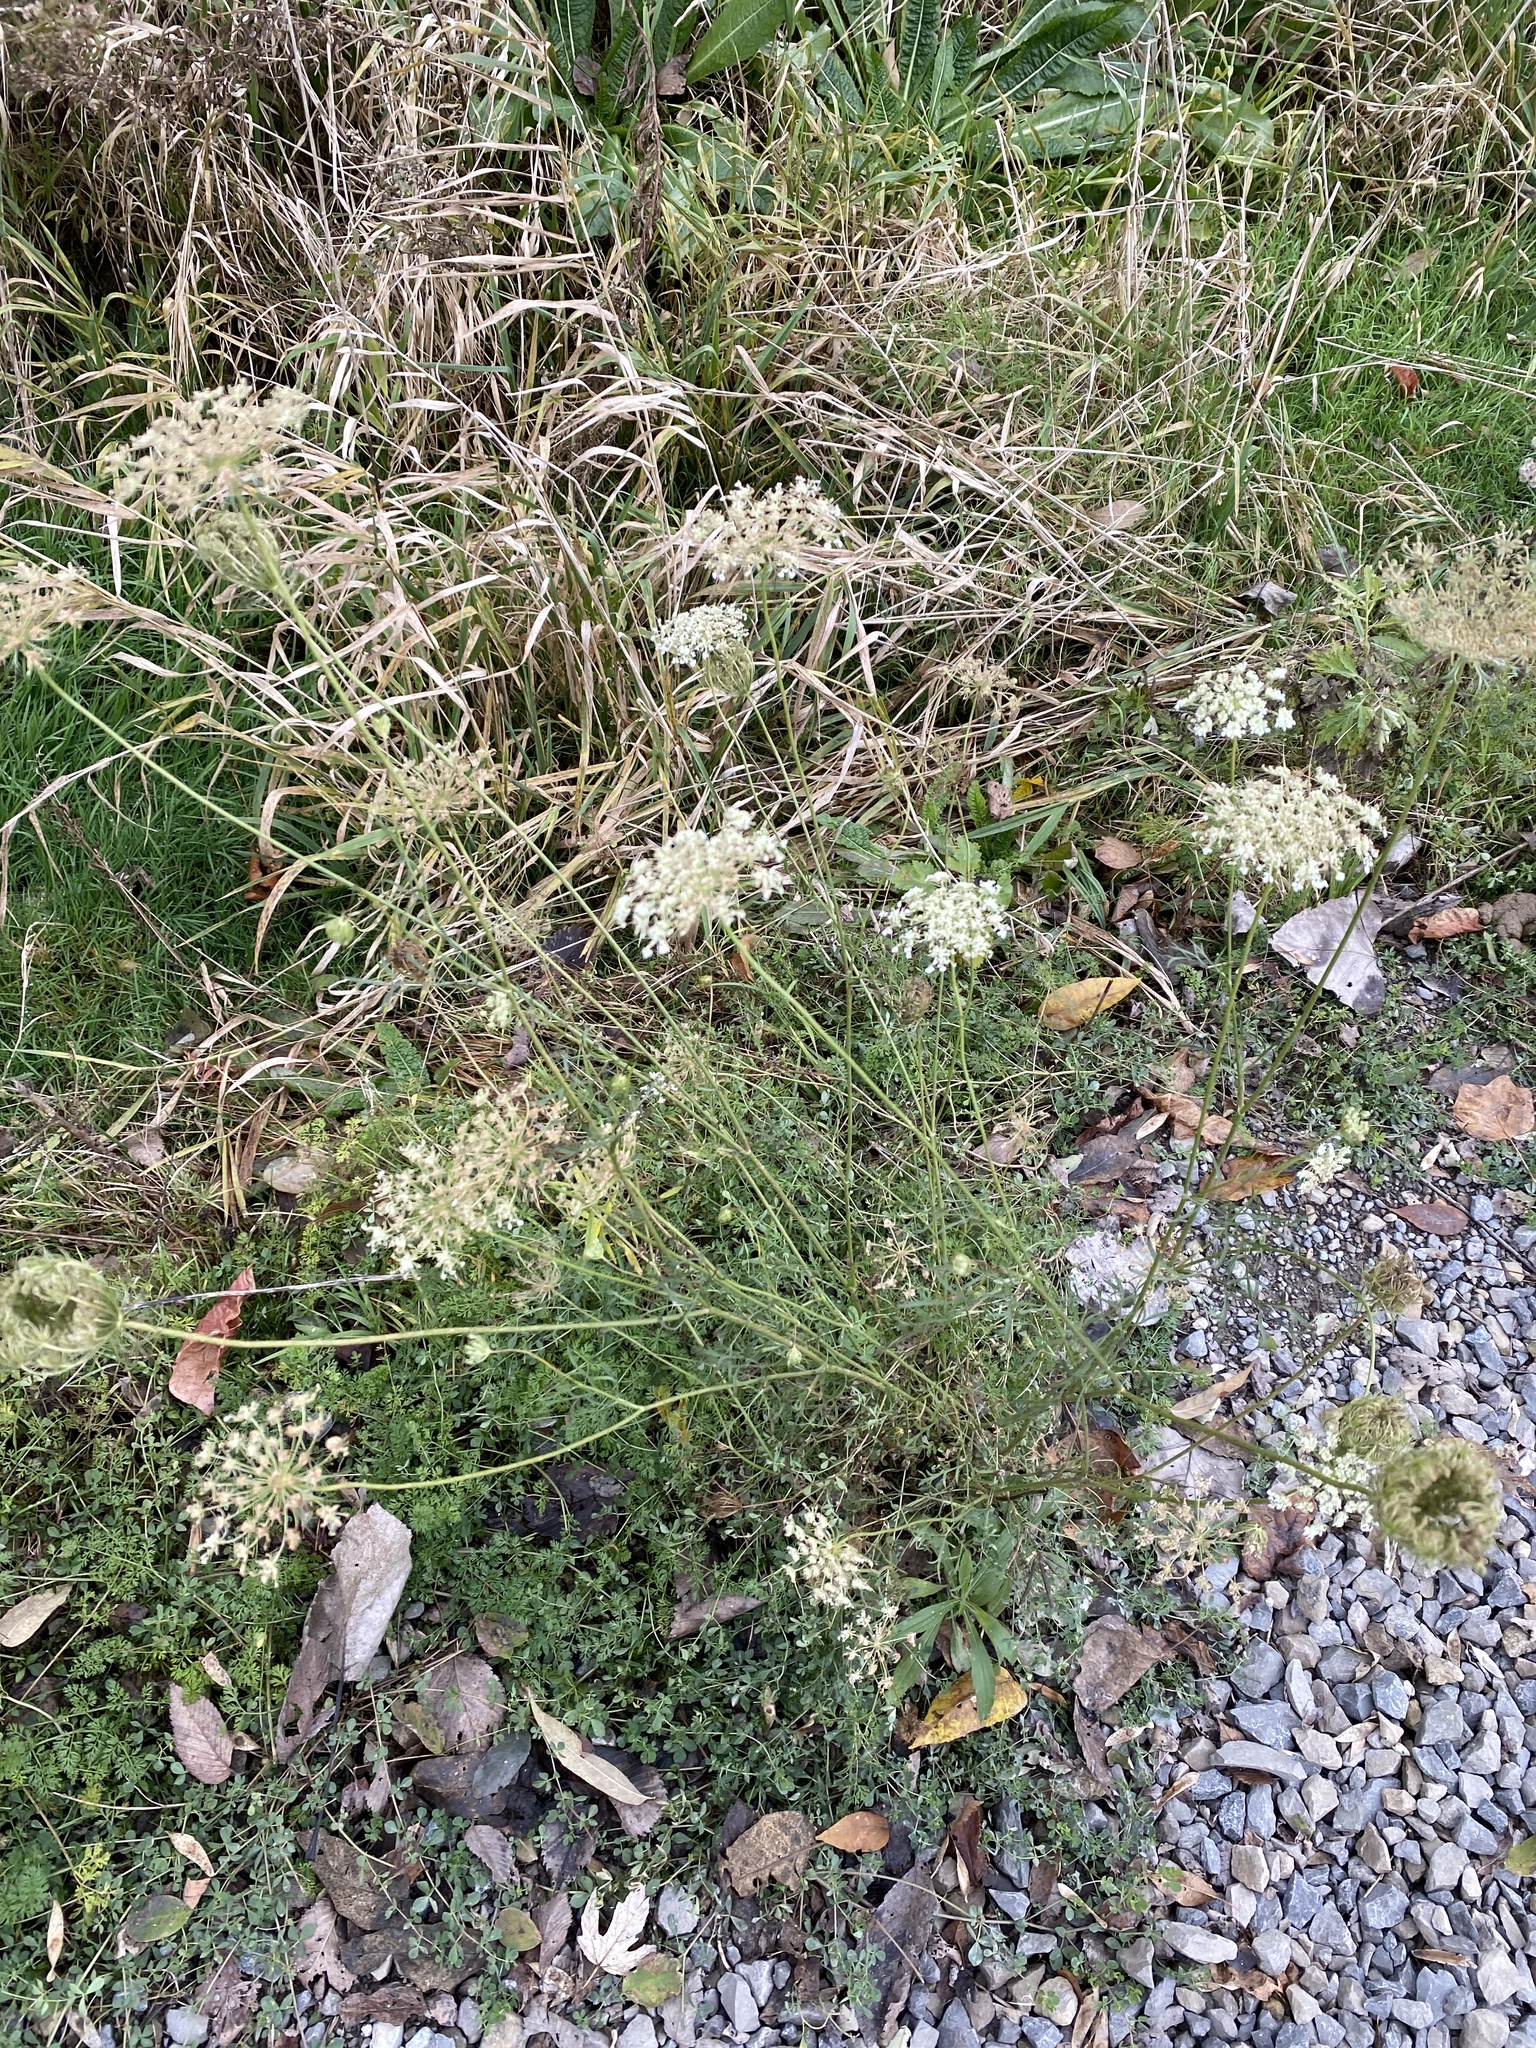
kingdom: Plantae
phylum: Tracheophyta
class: Magnoliopsida
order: Apiales
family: Apiaceae
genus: Daucus
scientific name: Daucus carota
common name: Wild carrot
